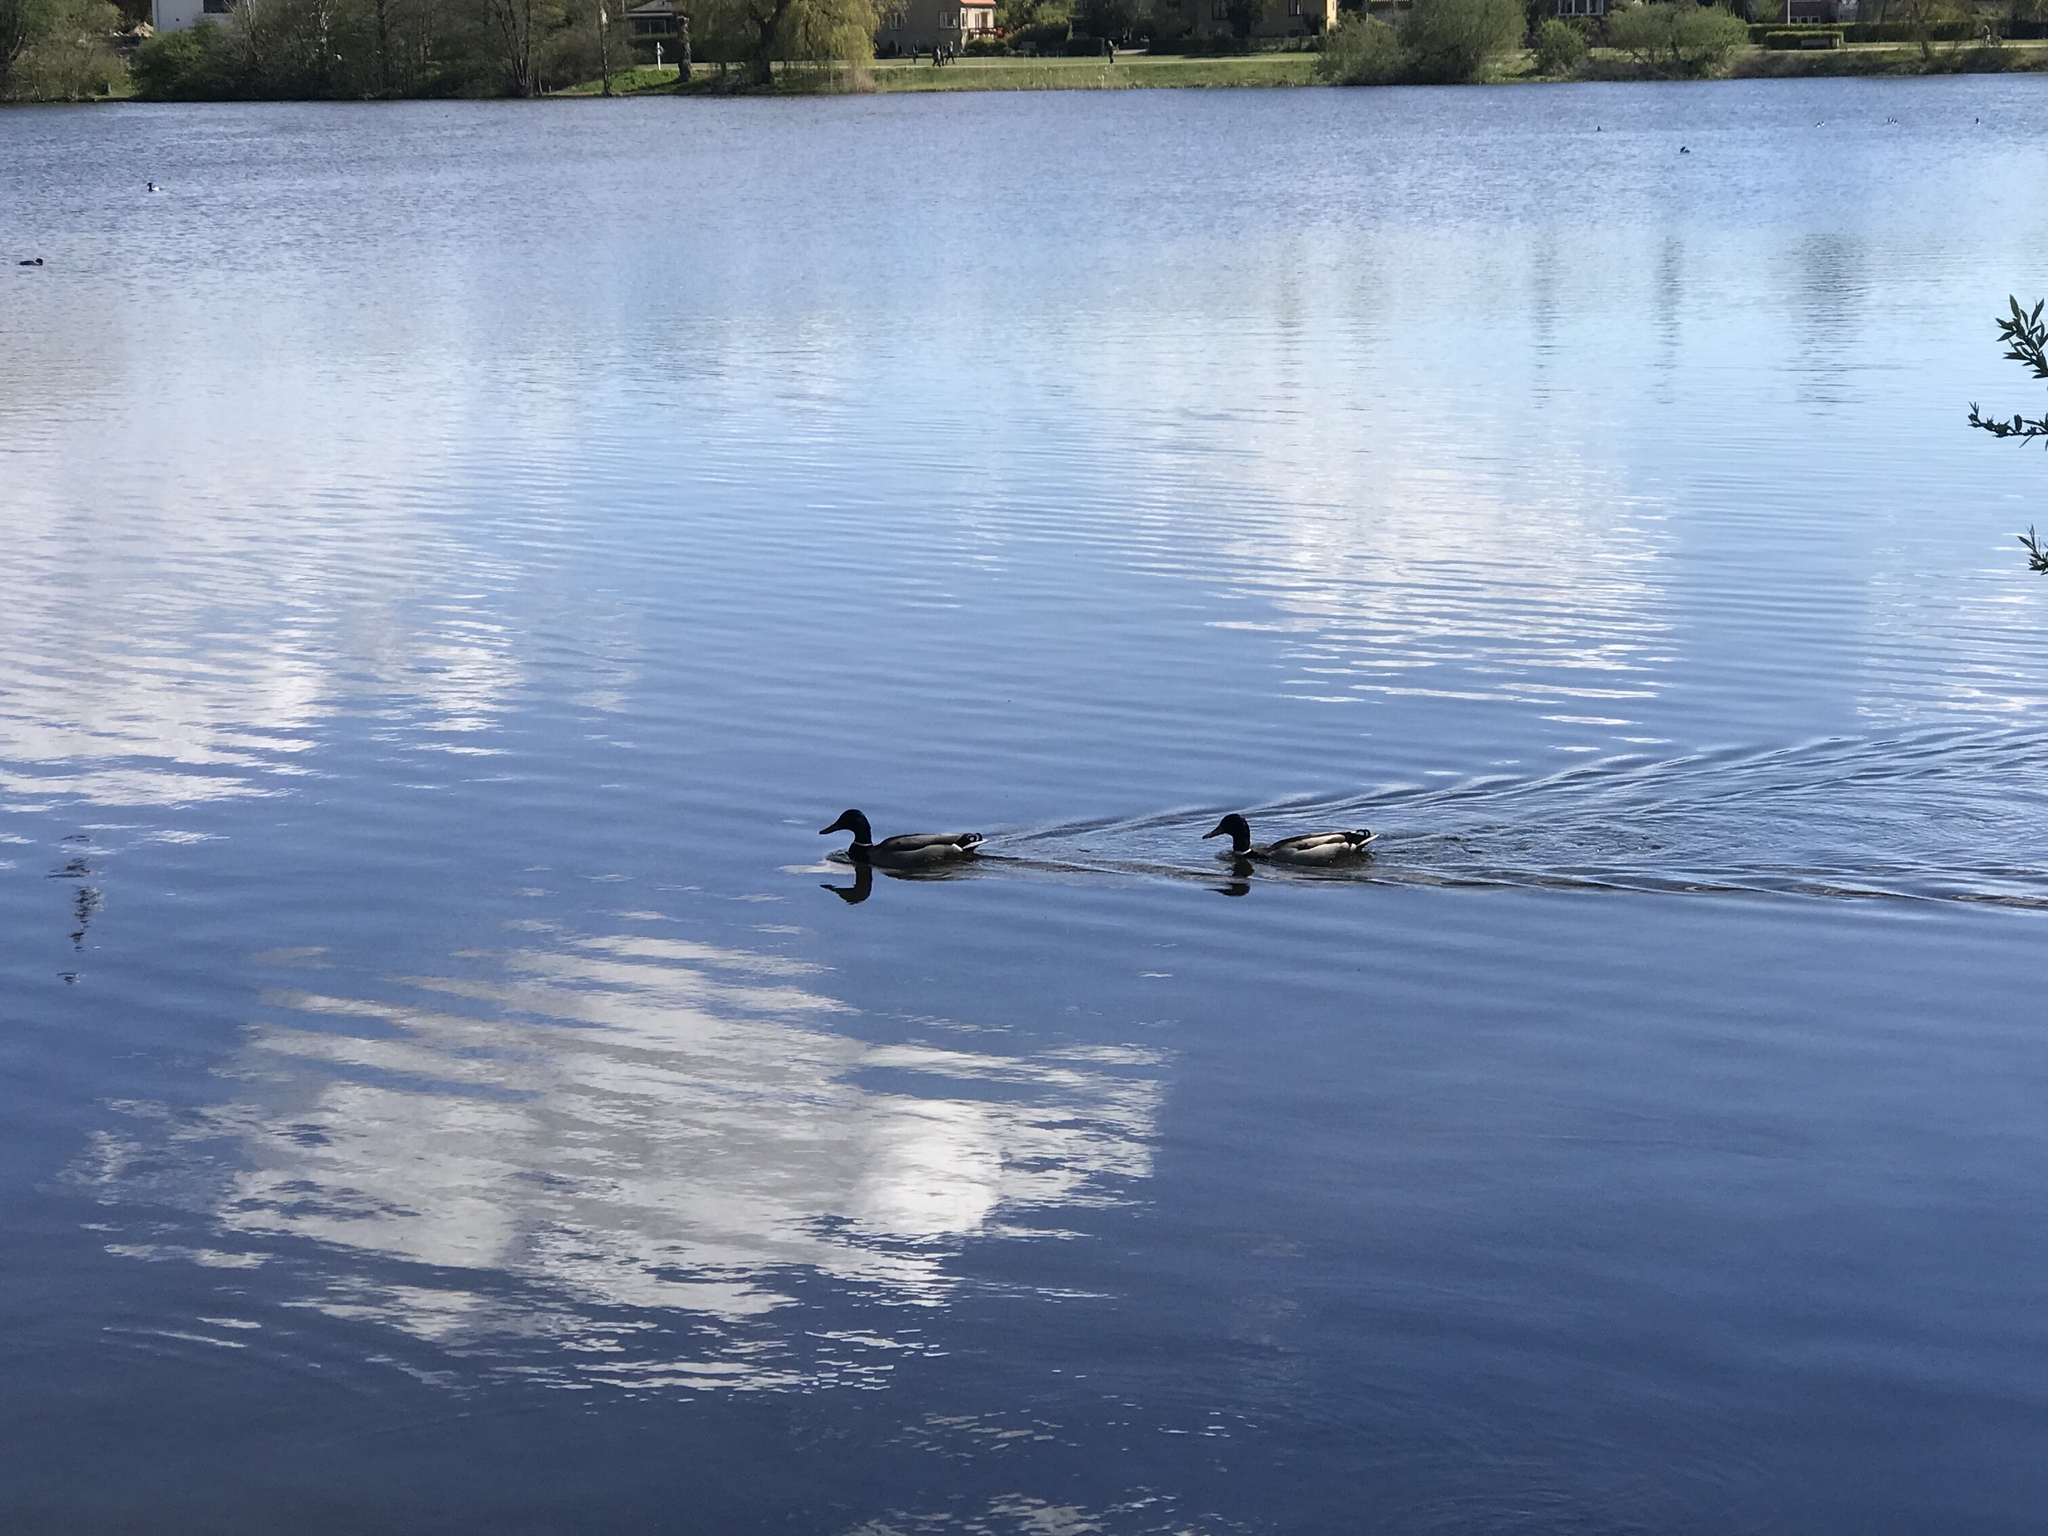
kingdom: Animalia
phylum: Chordata
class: Aves
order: Anseriformes
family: Anatidae
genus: Anas
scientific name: Anas platyrhynchos
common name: Mallard
